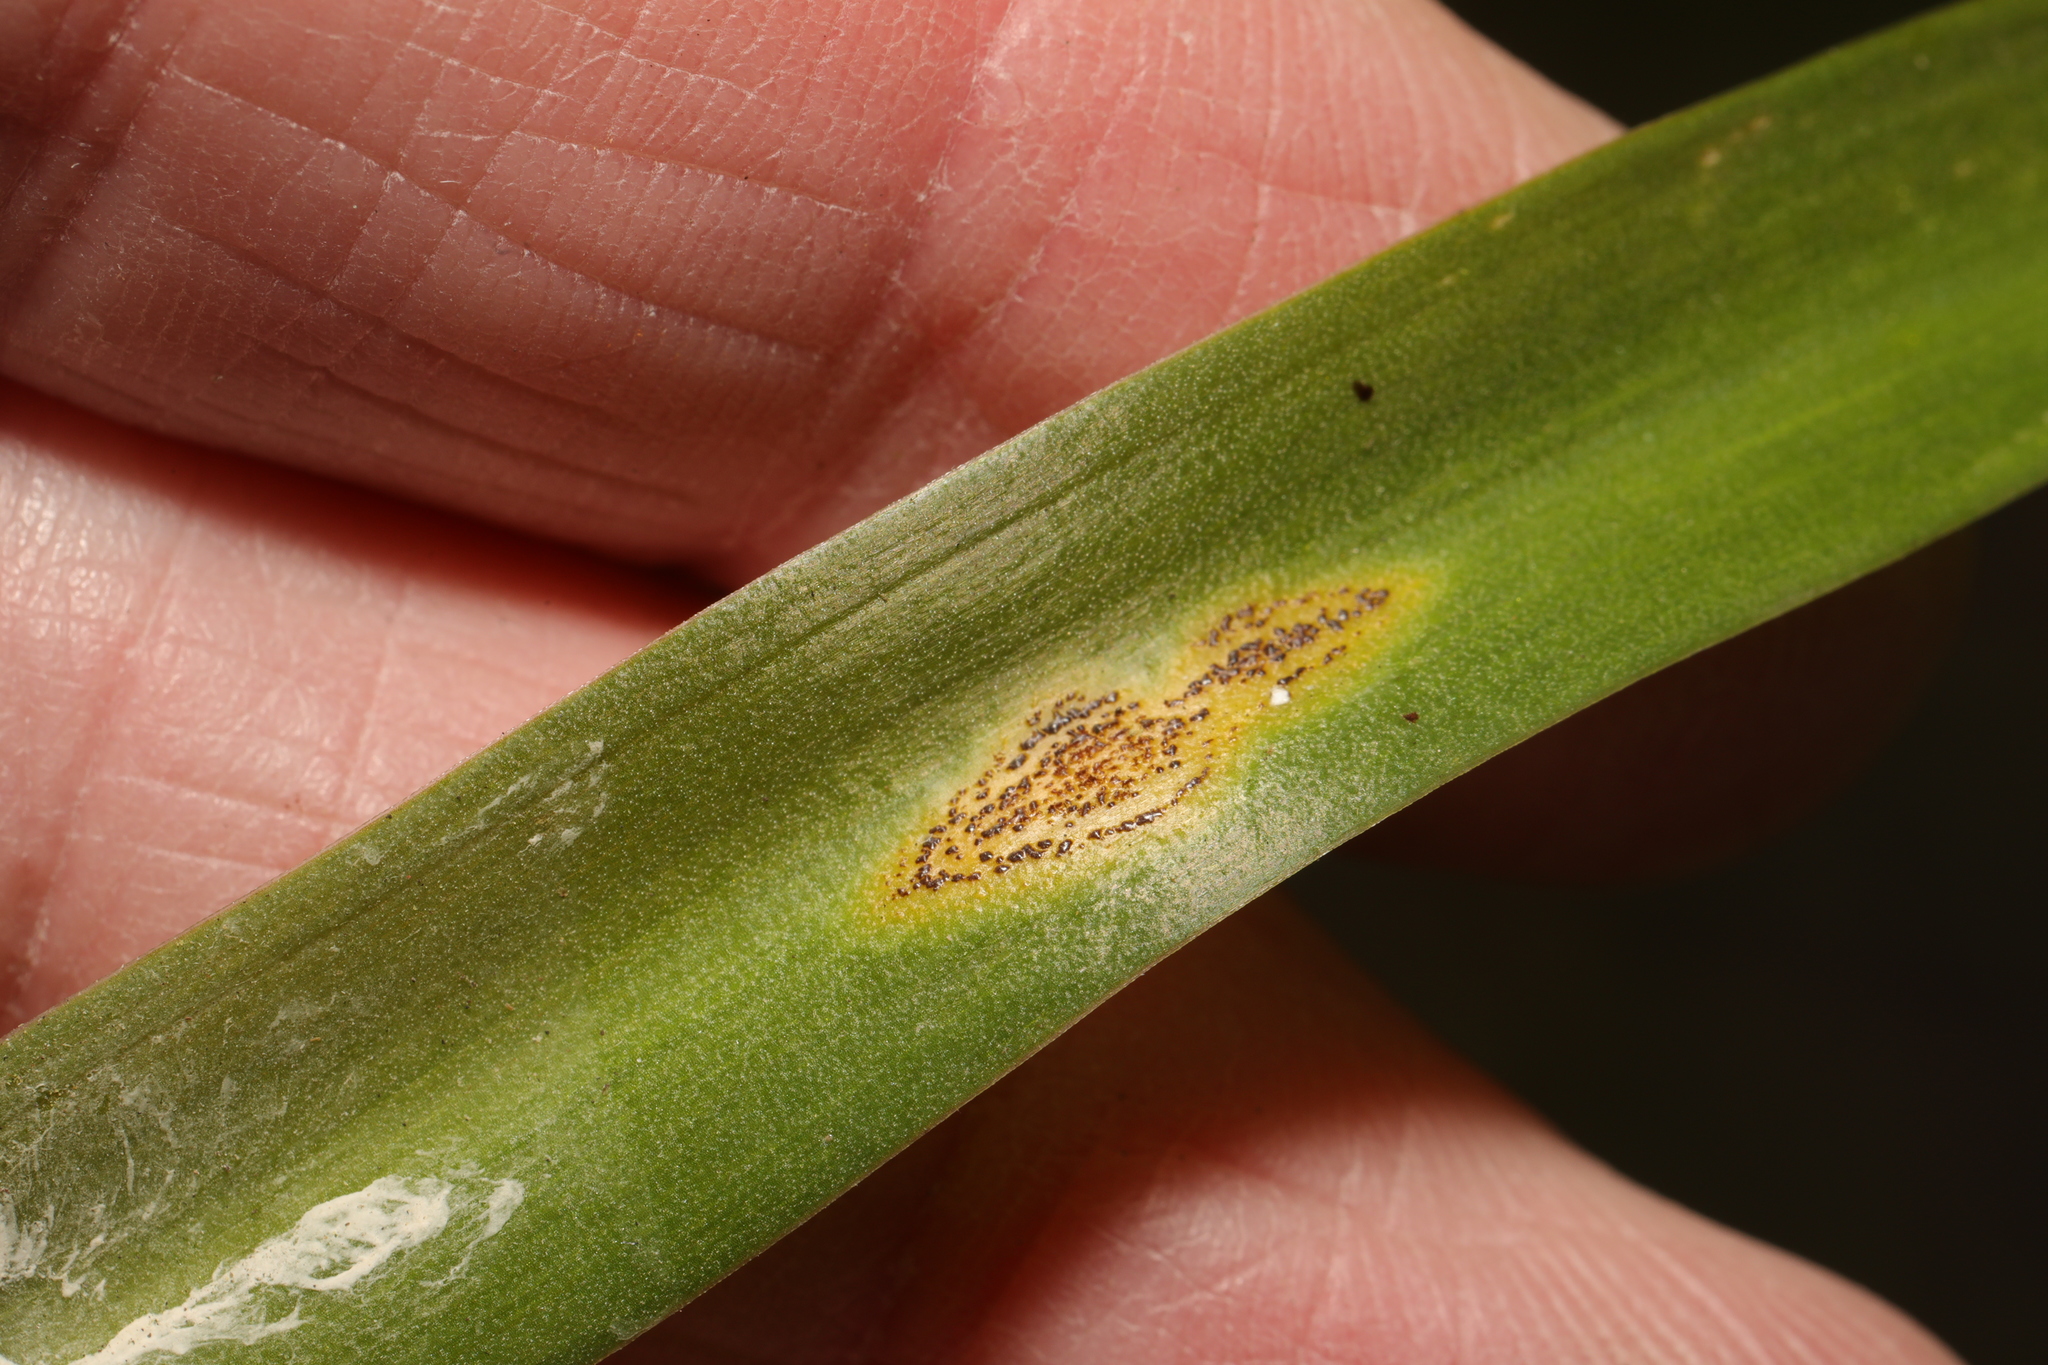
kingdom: Fungi
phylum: Basidiomycota
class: Pucciniomycetes
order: Pucciniales
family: Pucciniaceae
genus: Uromyces
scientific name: Uromyces hyacinthi
